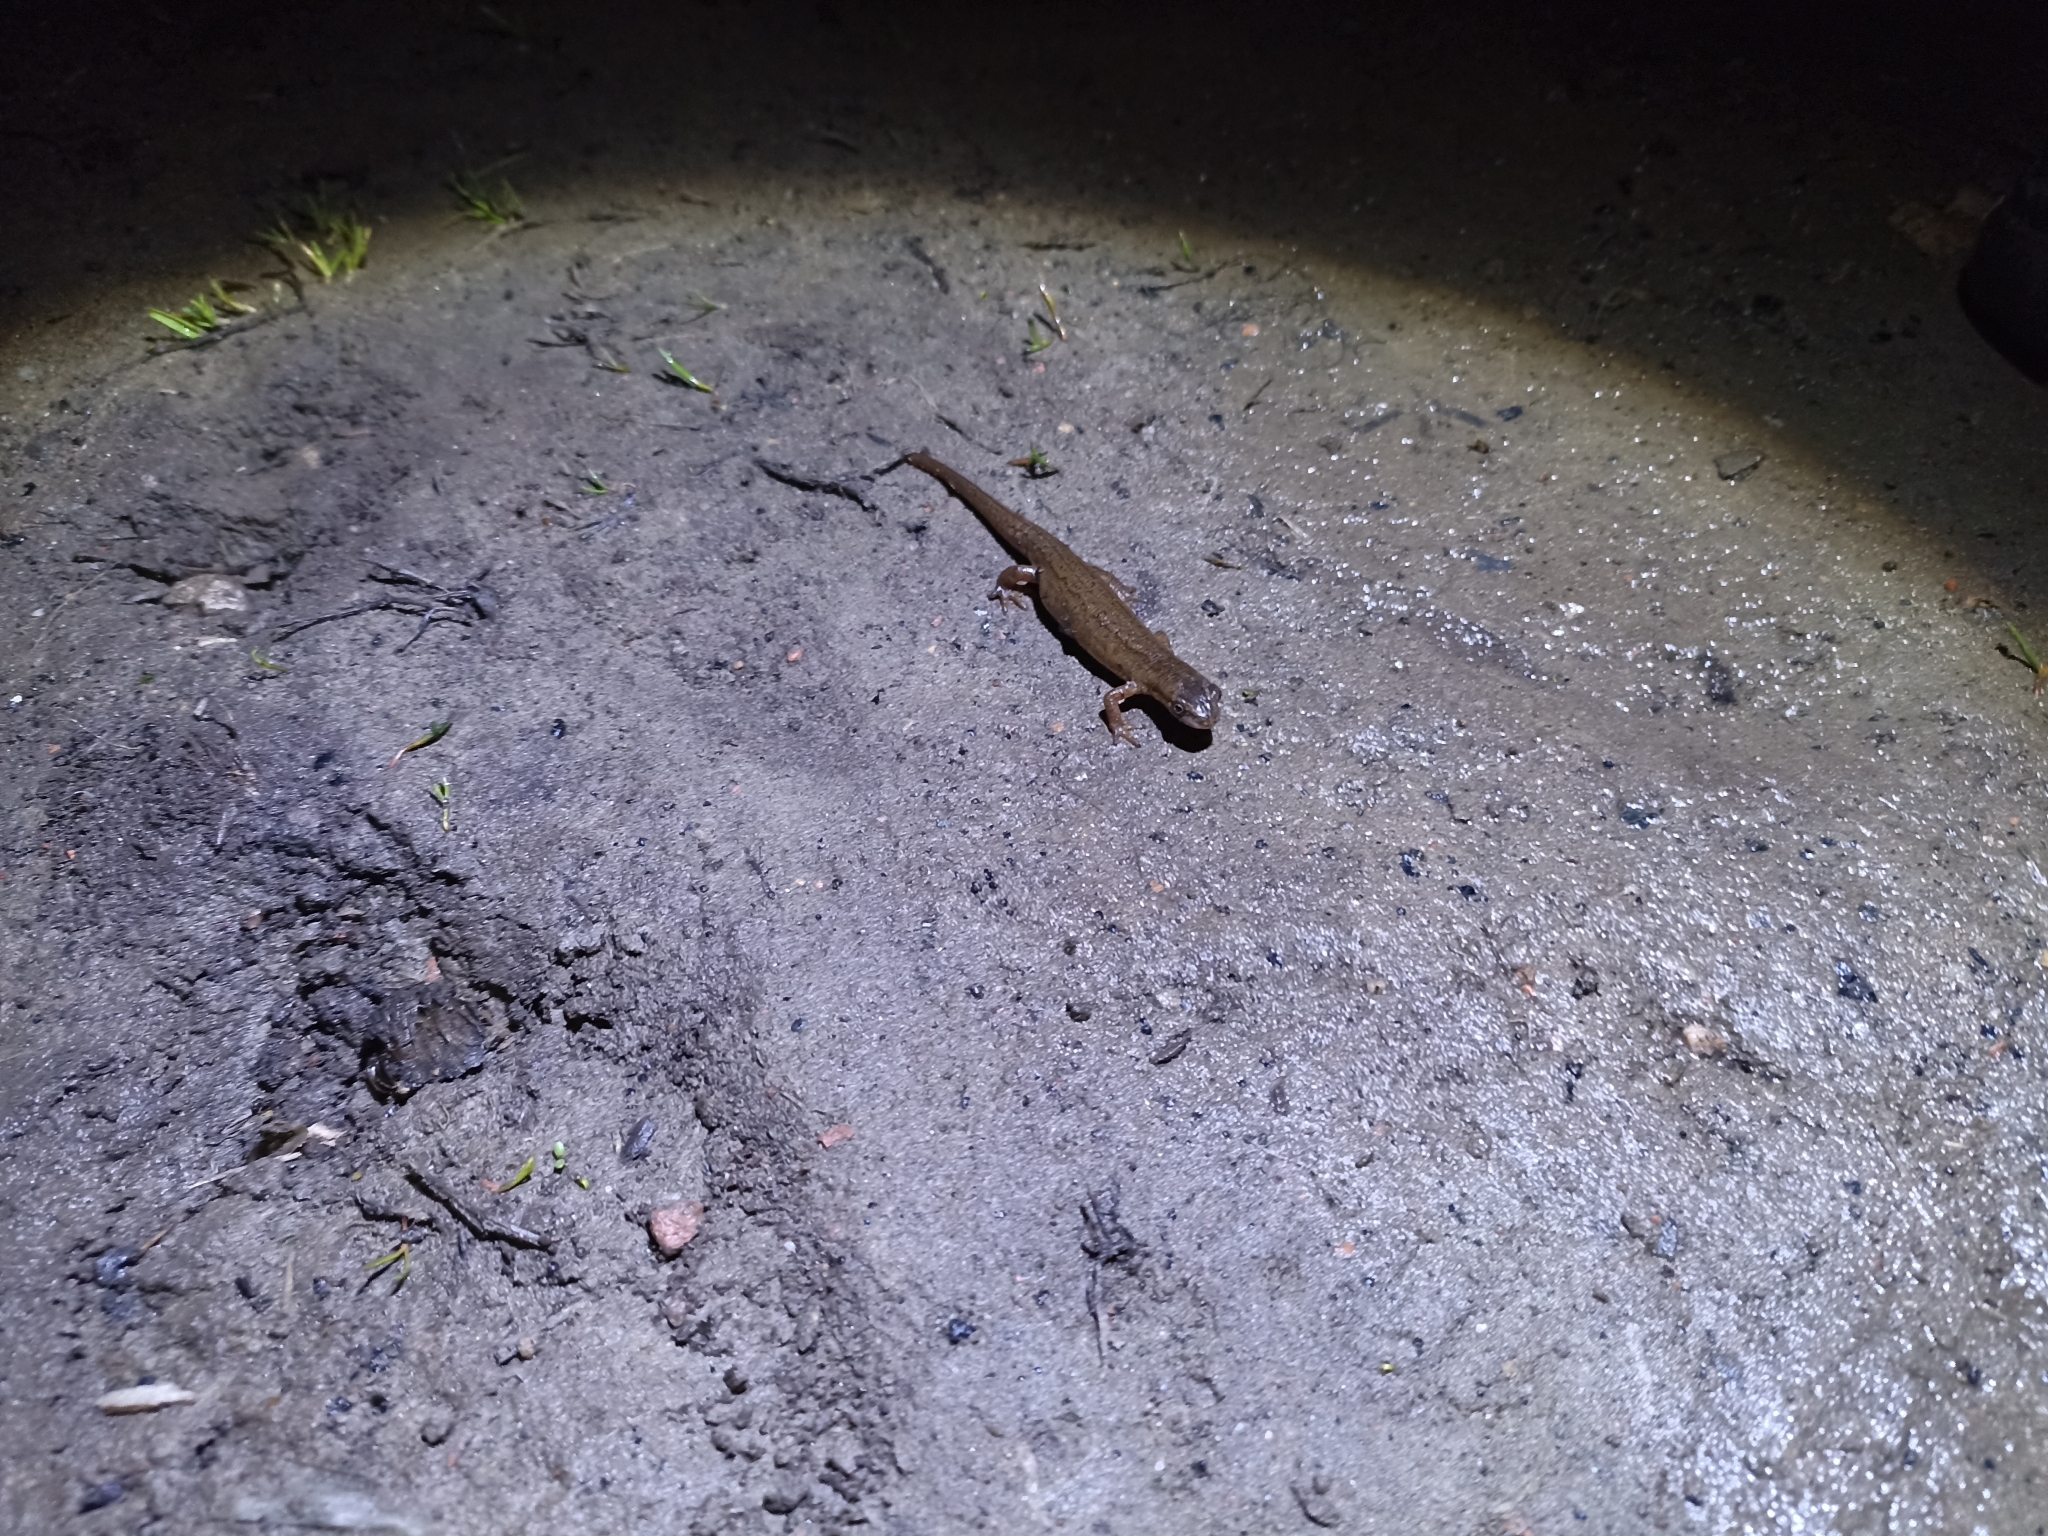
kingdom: Animalia
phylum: Chordata
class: Amphibia
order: Caudata
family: Salamandridae
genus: Lissotriton
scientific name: Lissotriton vulgaris
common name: Smooth newt
